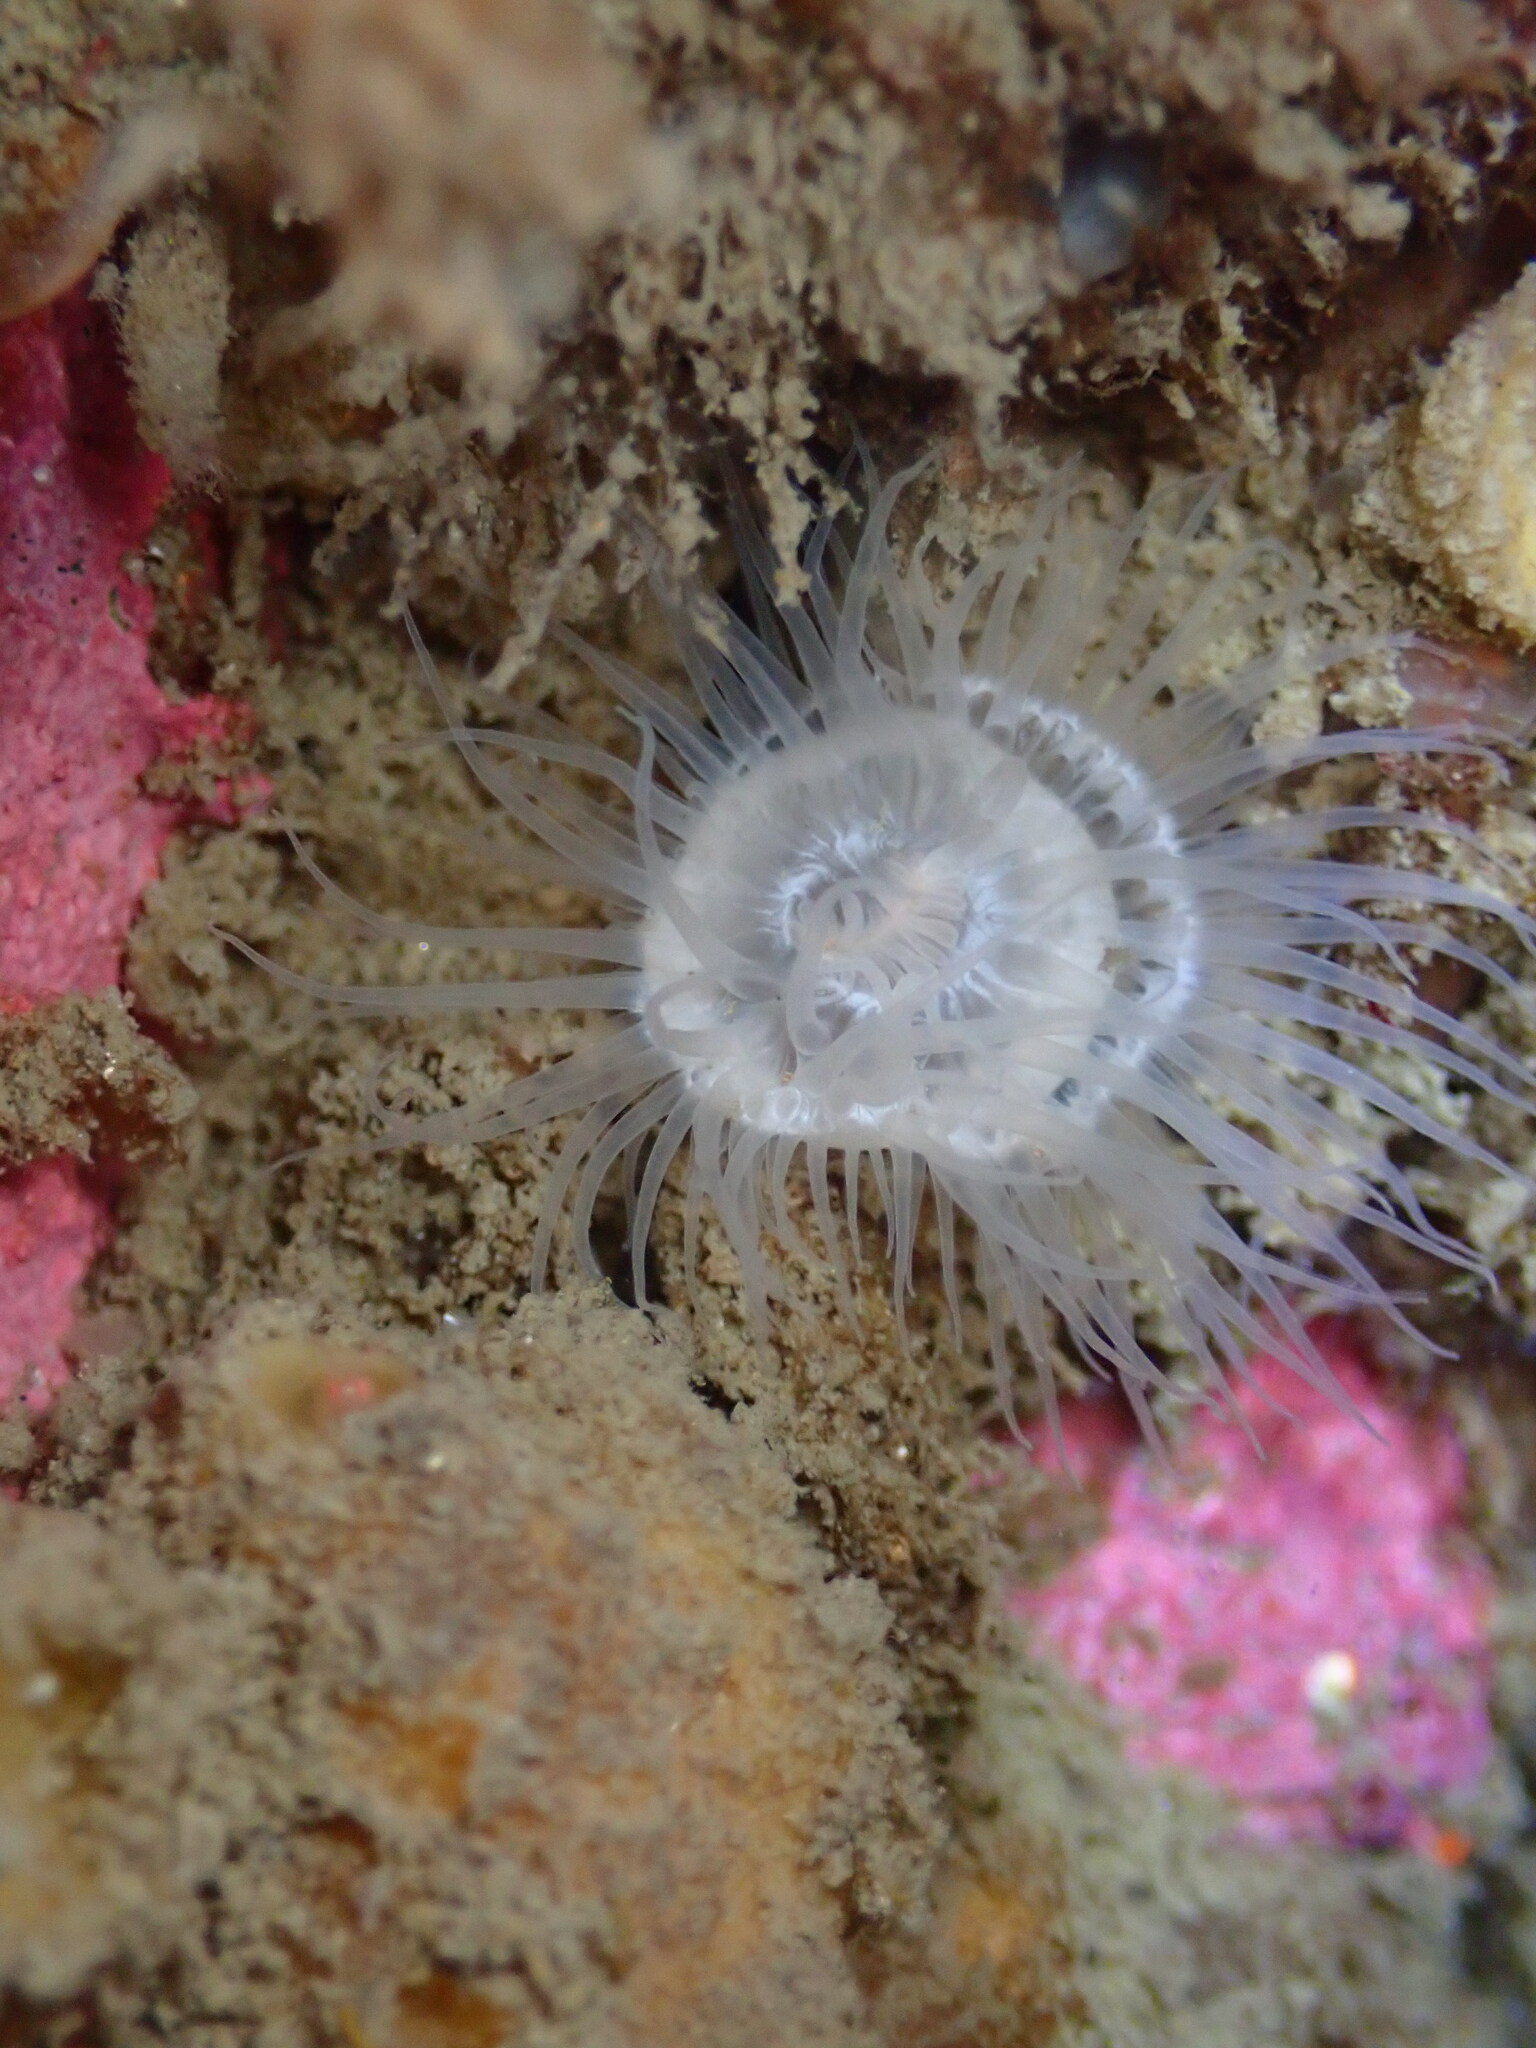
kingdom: Animalia
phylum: Cnidaria
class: Anthozoa
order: Actiniaria
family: Metridiidae
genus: Metridium
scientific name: Metridium senile
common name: Clonal plumose anemone
